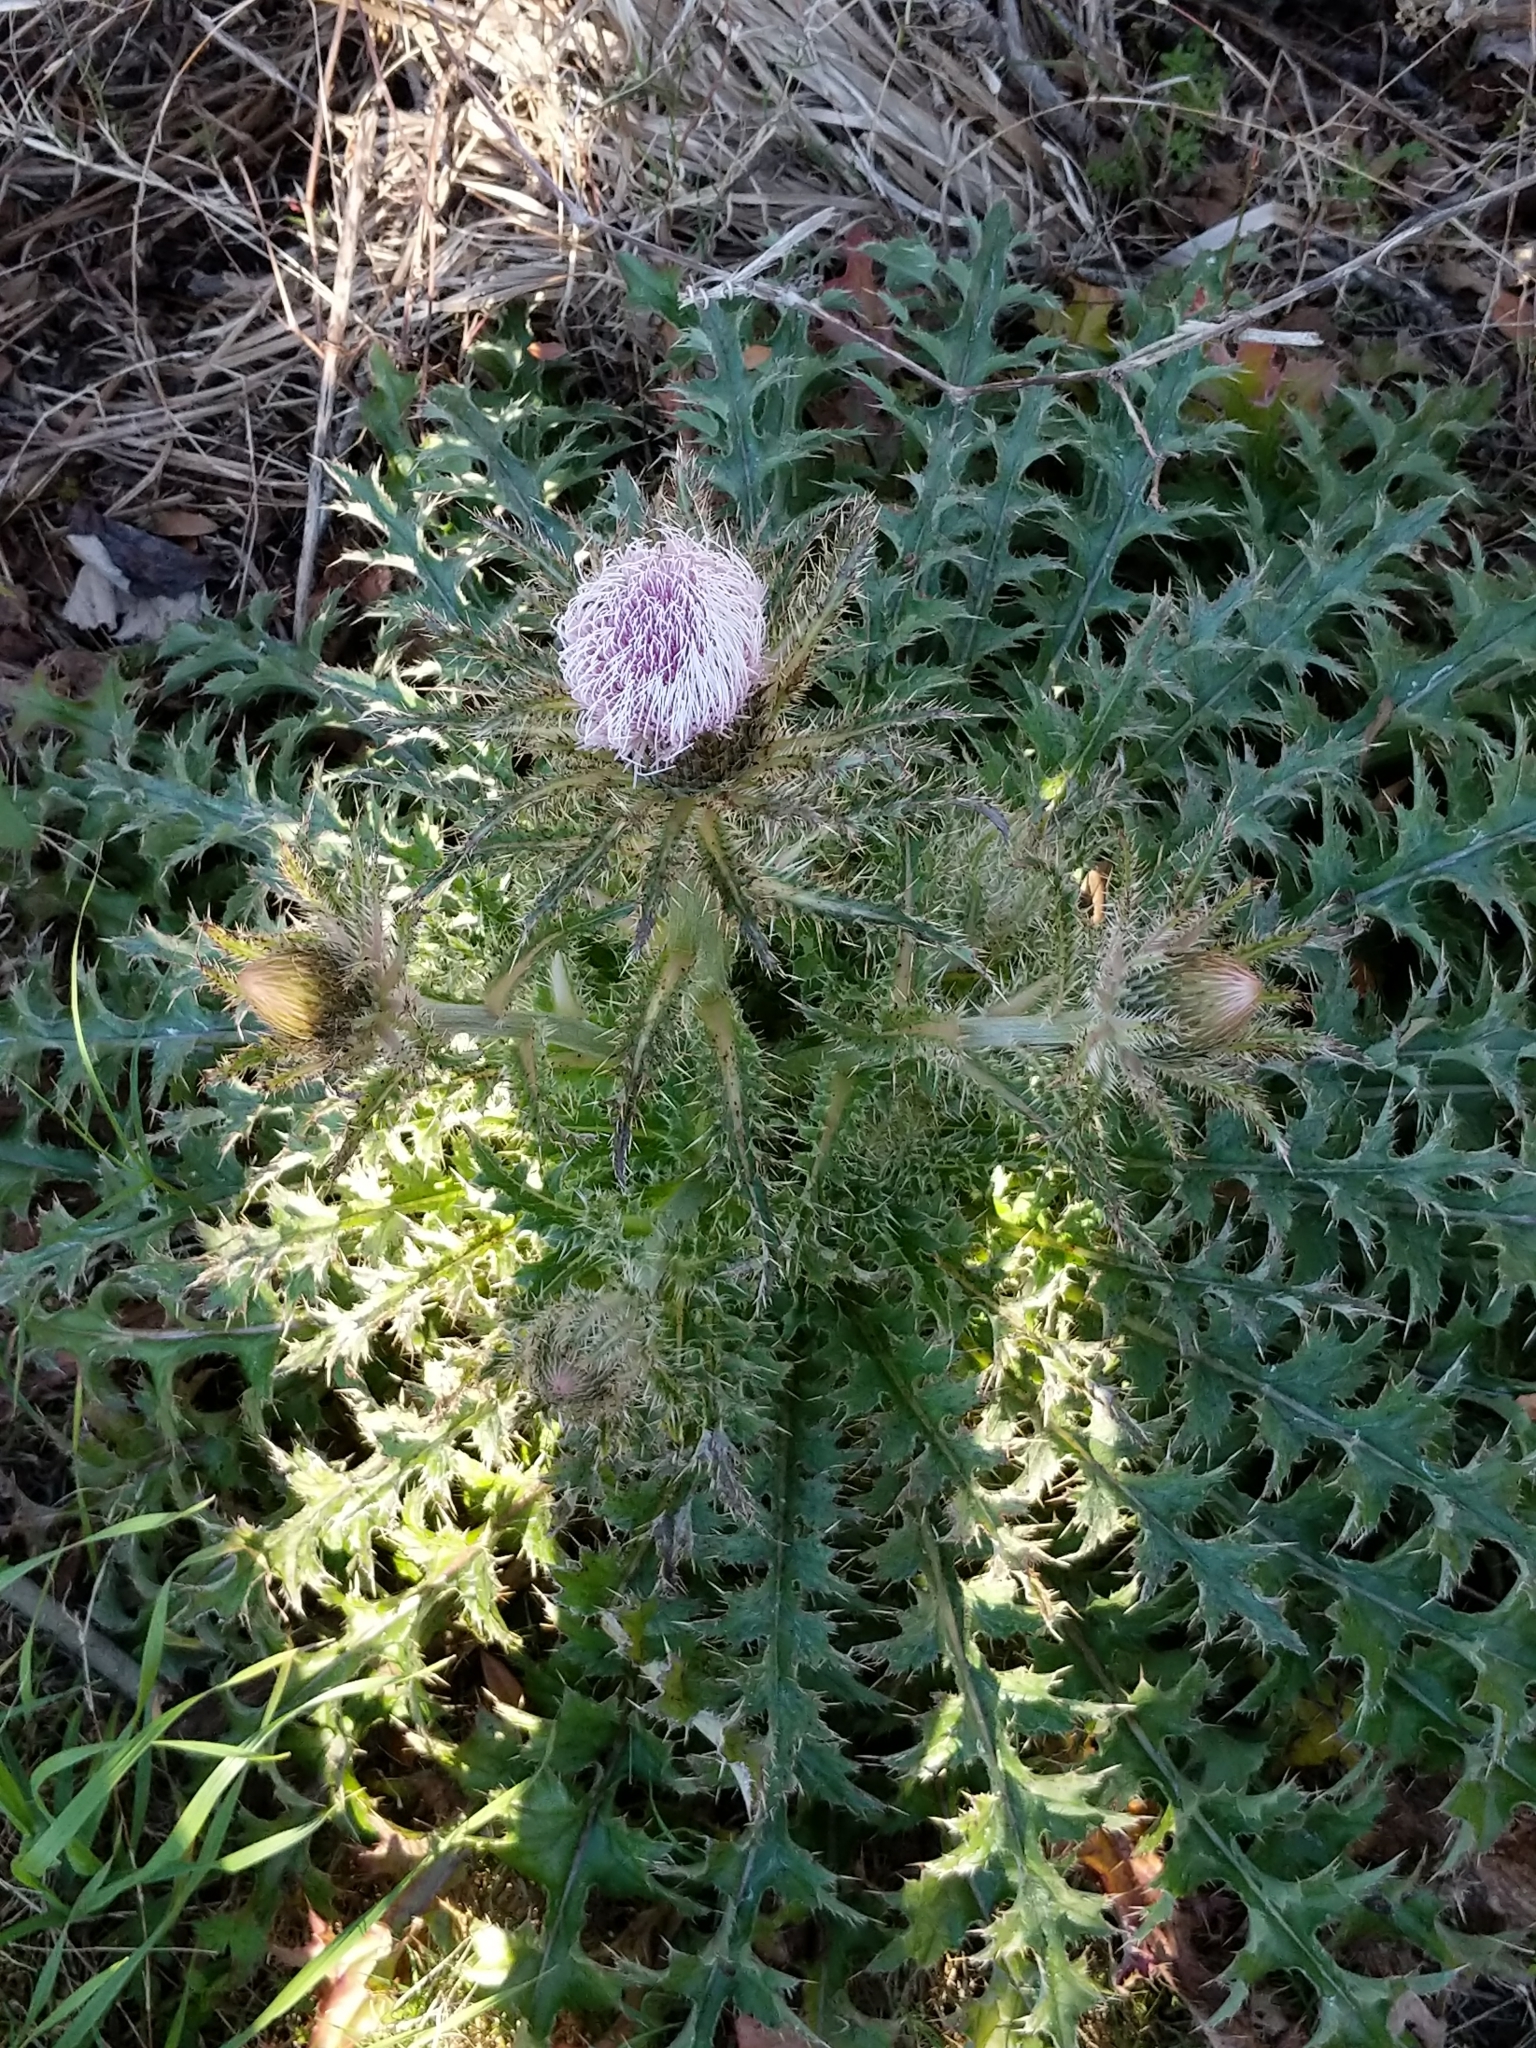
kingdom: Plantae
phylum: Tracheophyta
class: Magnoliopsida
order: Asterales
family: Asteraceae
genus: Cirsium
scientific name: Cirsium horridulum
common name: Bristly thistle
